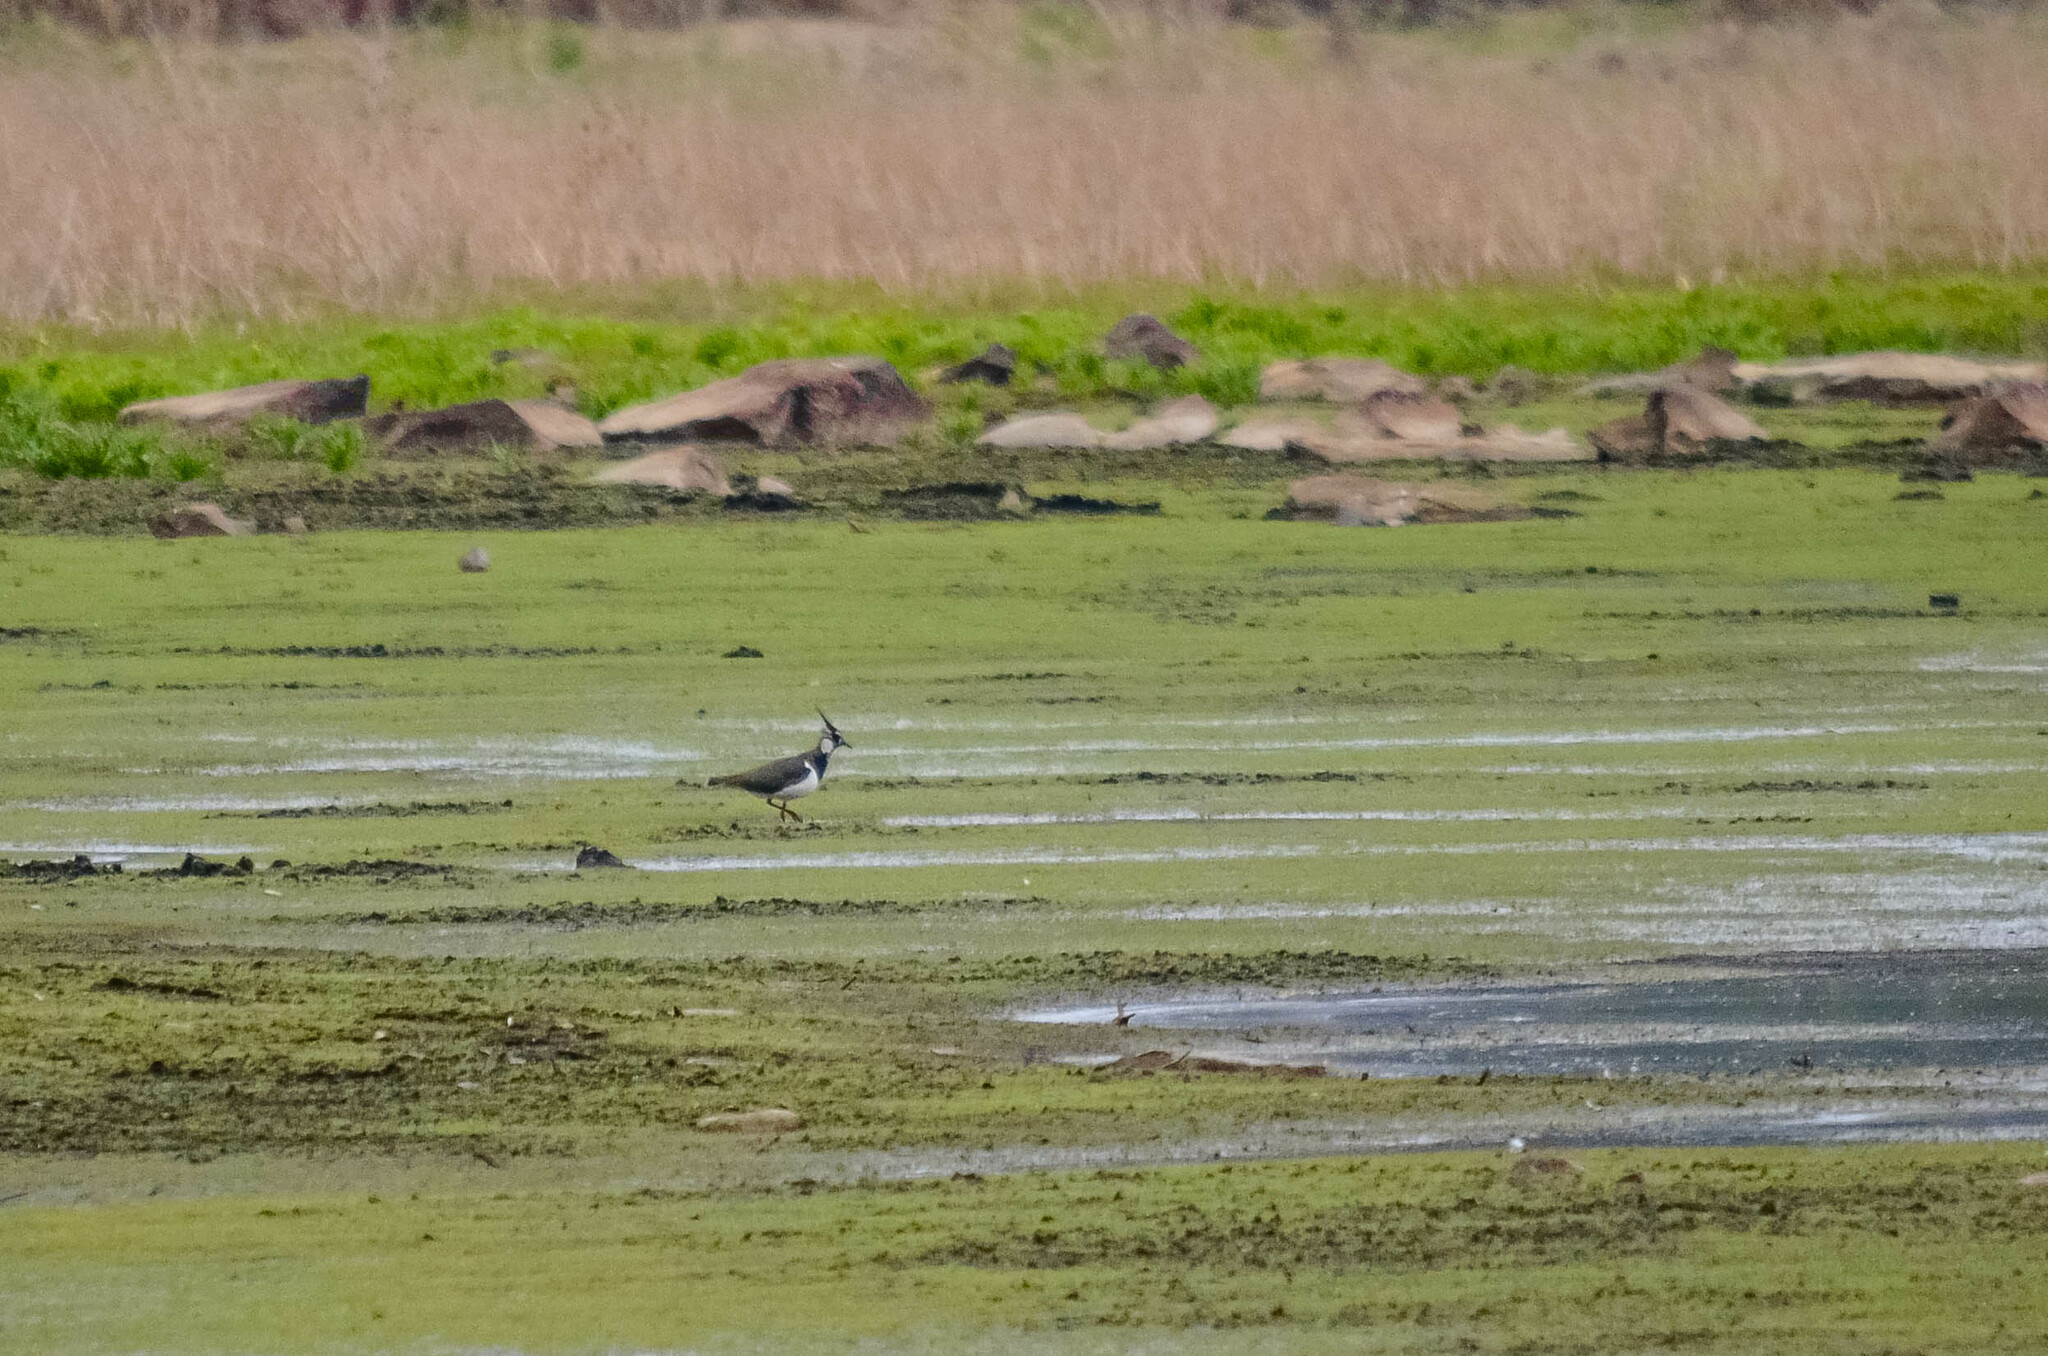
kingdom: Animalia
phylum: Chordata
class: Aves
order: Charadriiformes
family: Charadriidae
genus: Vanellus
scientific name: Vanellus vanellus
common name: Northern lapwing
